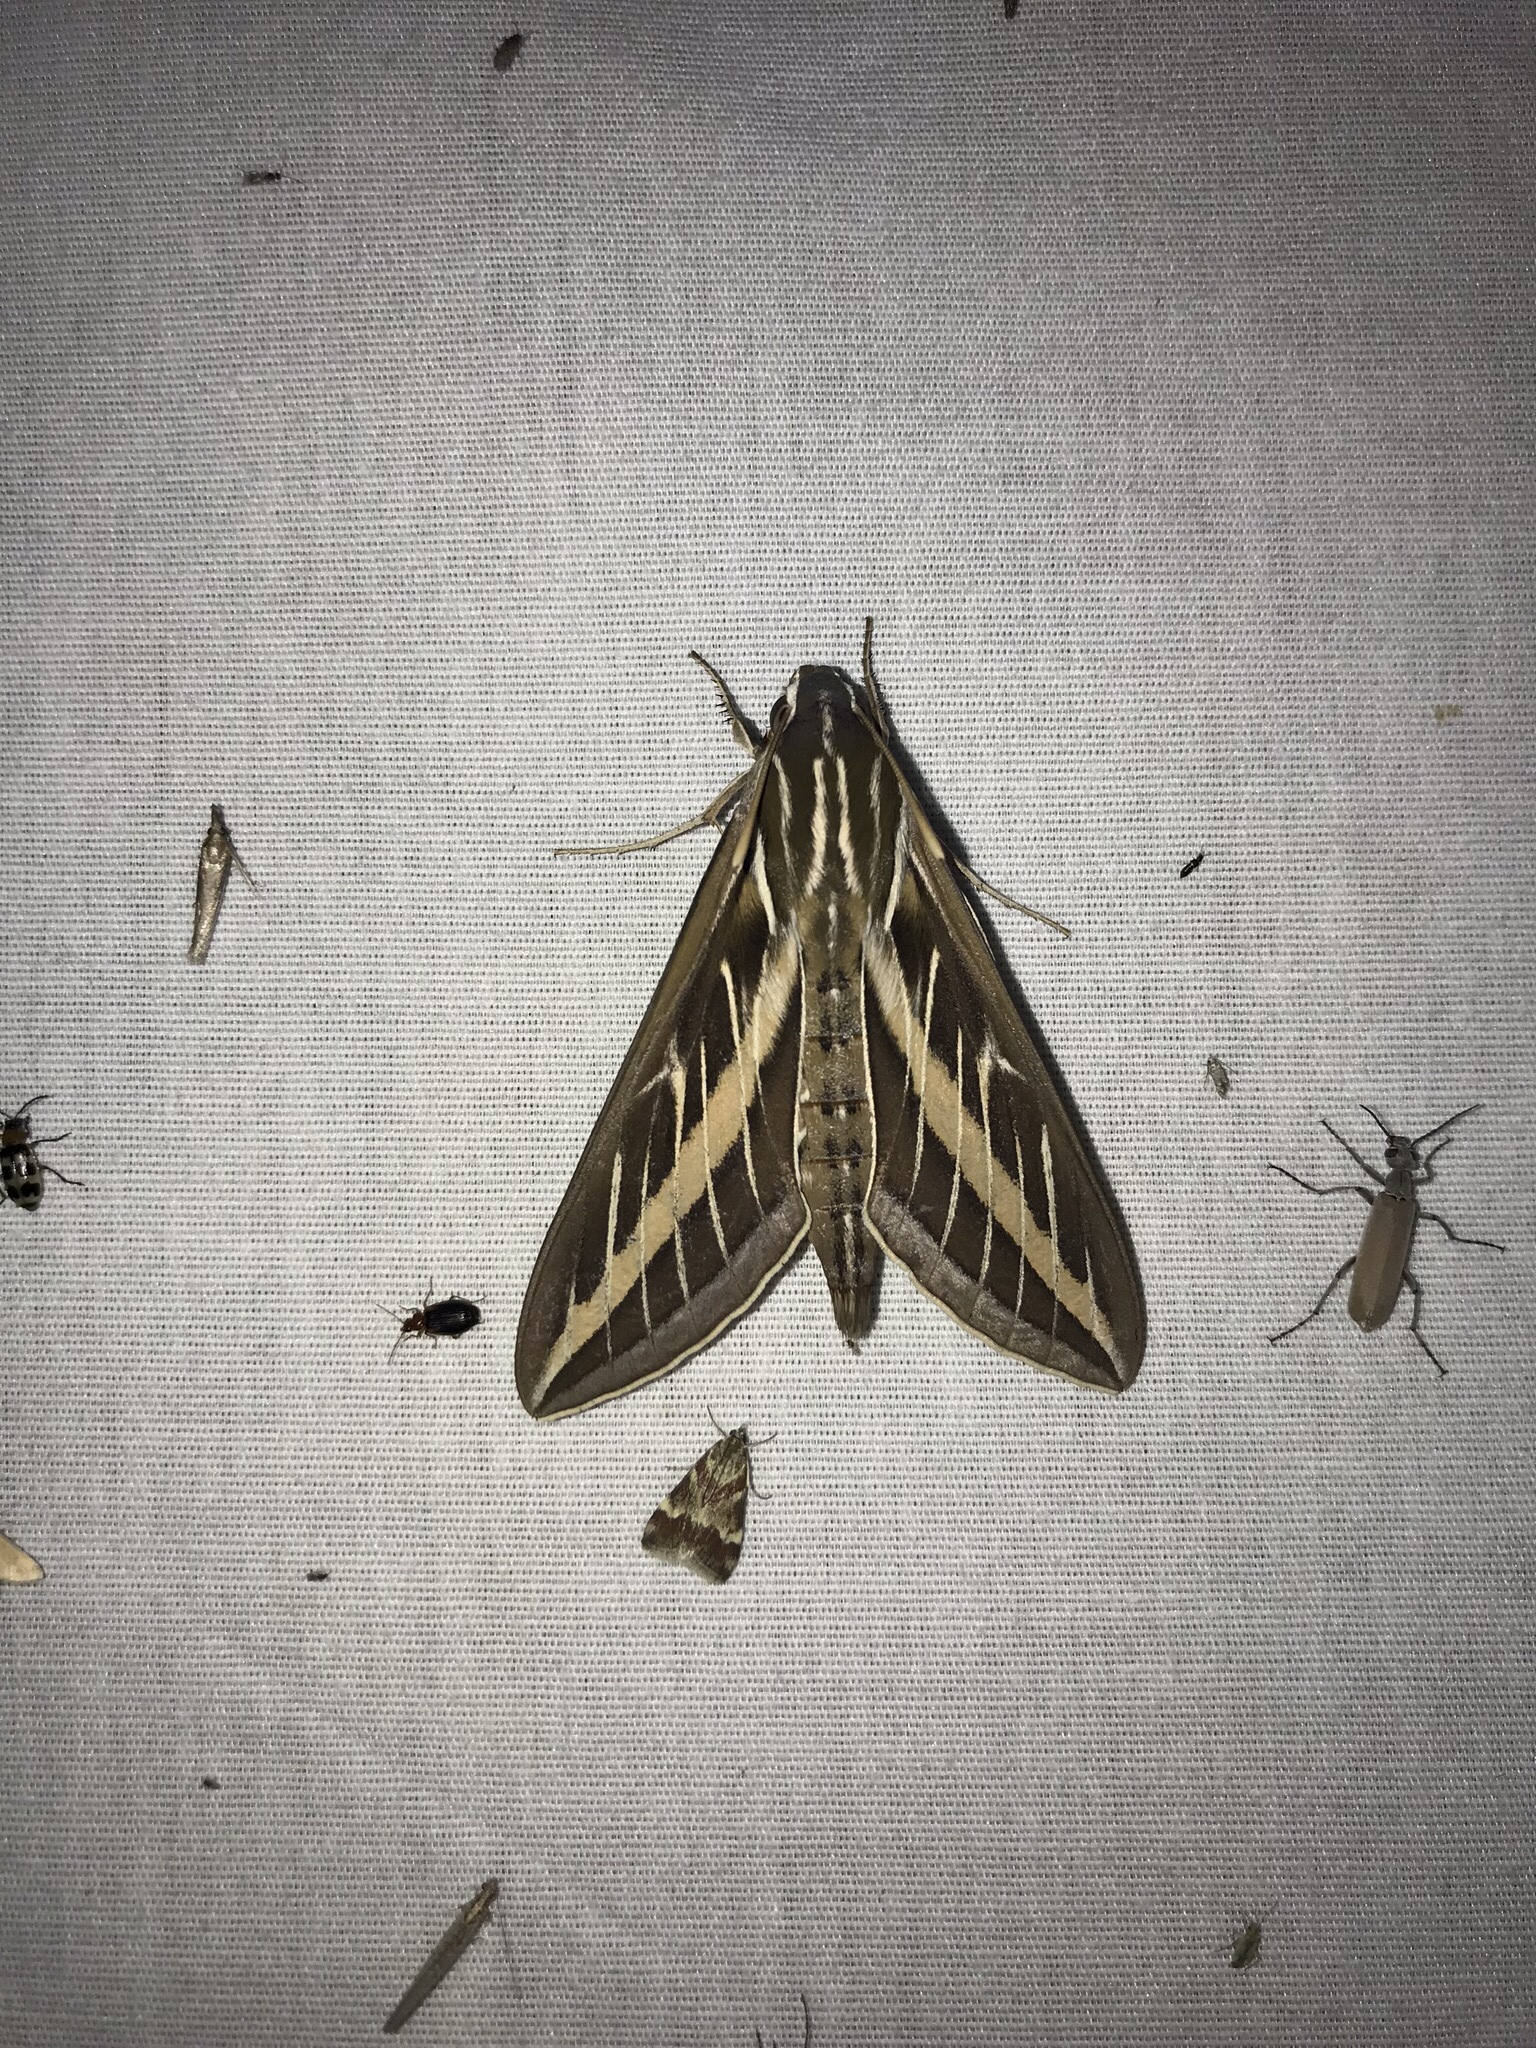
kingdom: Animalia
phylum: Arthropoda
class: Insecta
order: Lepidoptera
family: Sphingidae
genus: Hyles
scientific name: Hyles lineata
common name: White-lined sphinx
